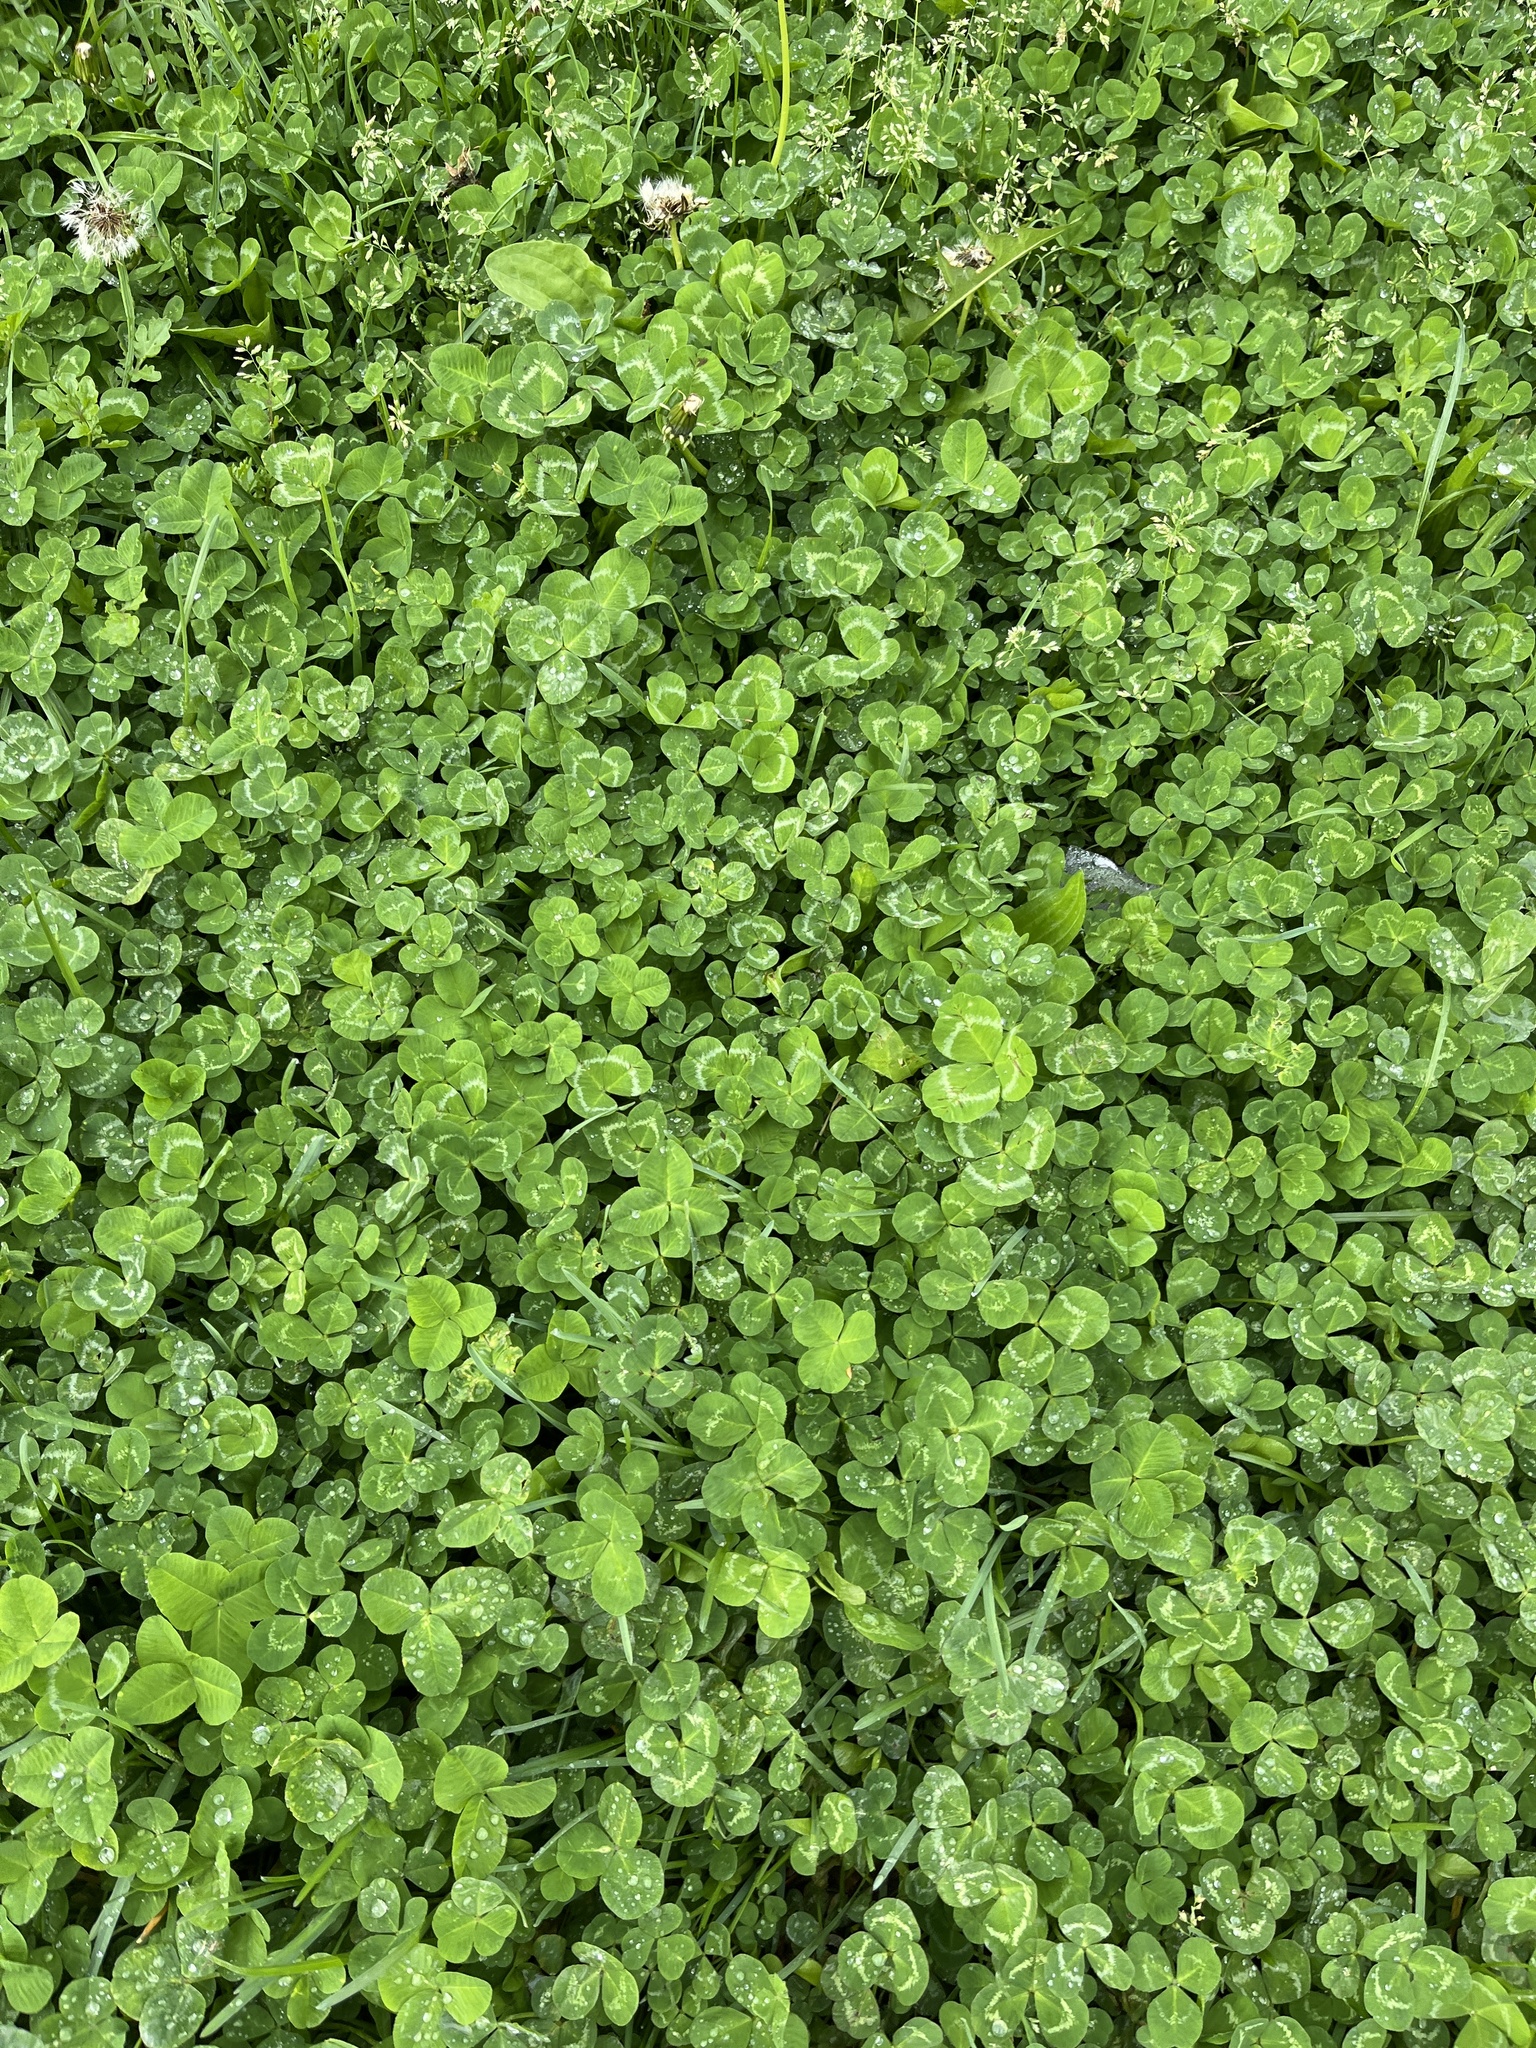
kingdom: Plantae
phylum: Tracheophyta
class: Magnoliopsida
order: Fabales
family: Fabaceae
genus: Trifolium
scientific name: Trifolium repens
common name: White clover
